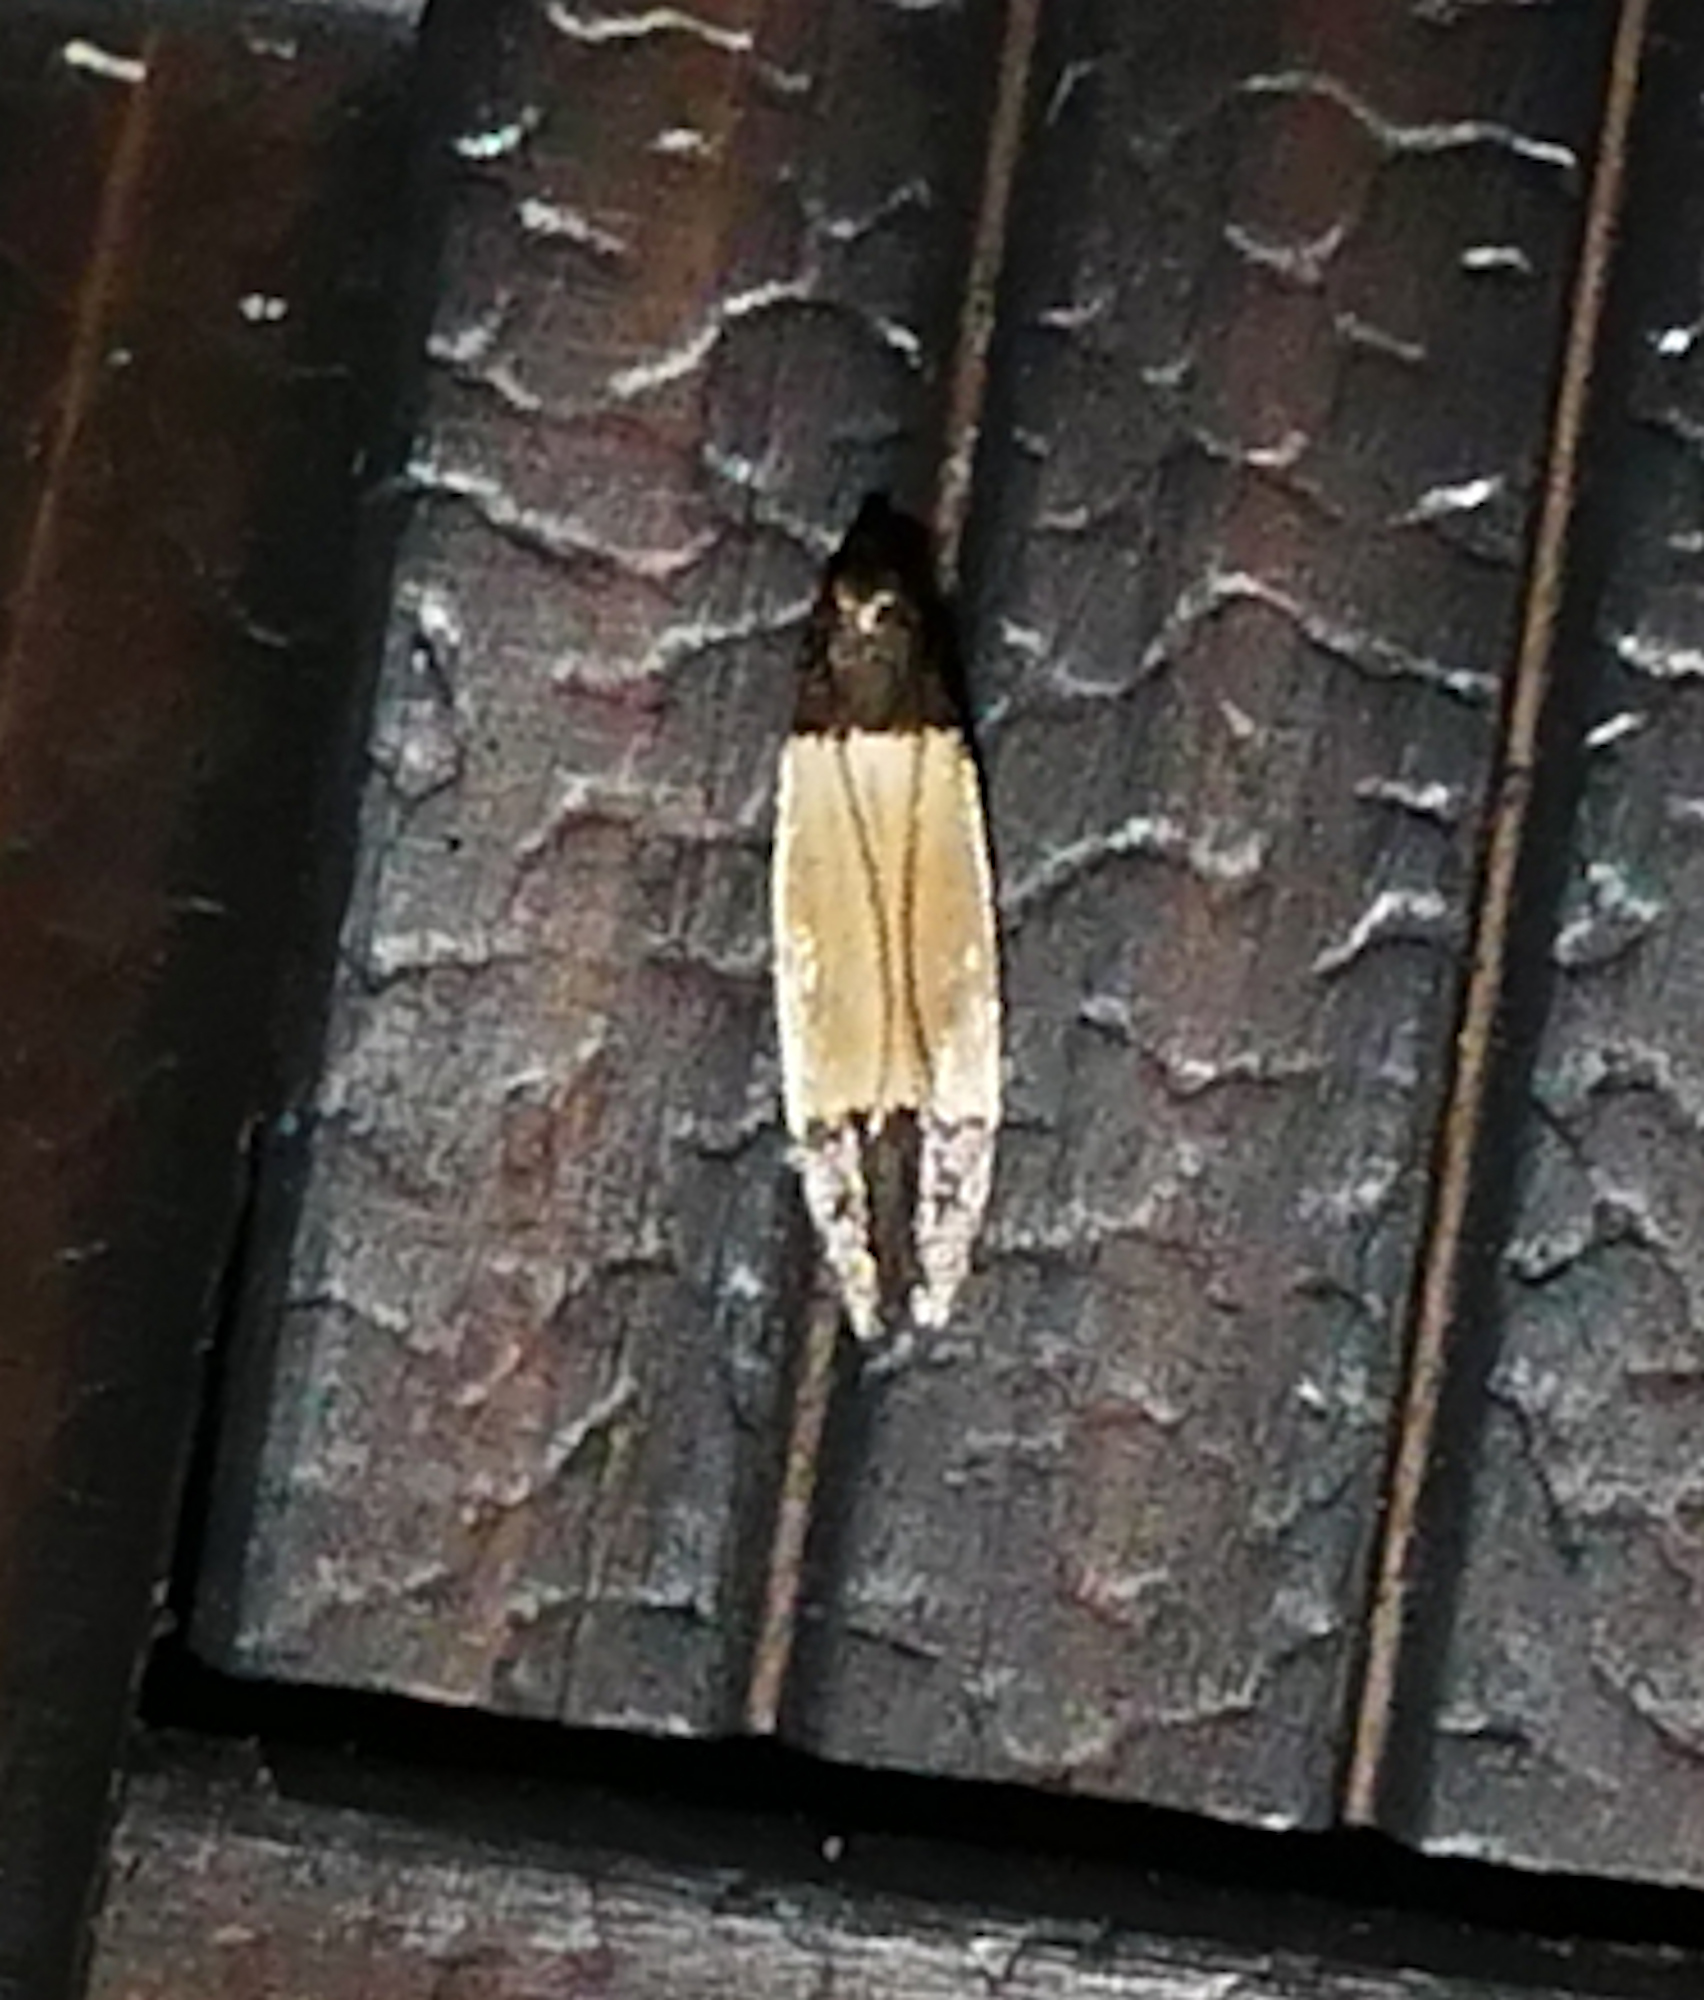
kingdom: Animalia
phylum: Arthropoda
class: Insecta
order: Lepidoptera
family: Gelechiidae
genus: Anacampsis
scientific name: Anacampsis coverdalella
